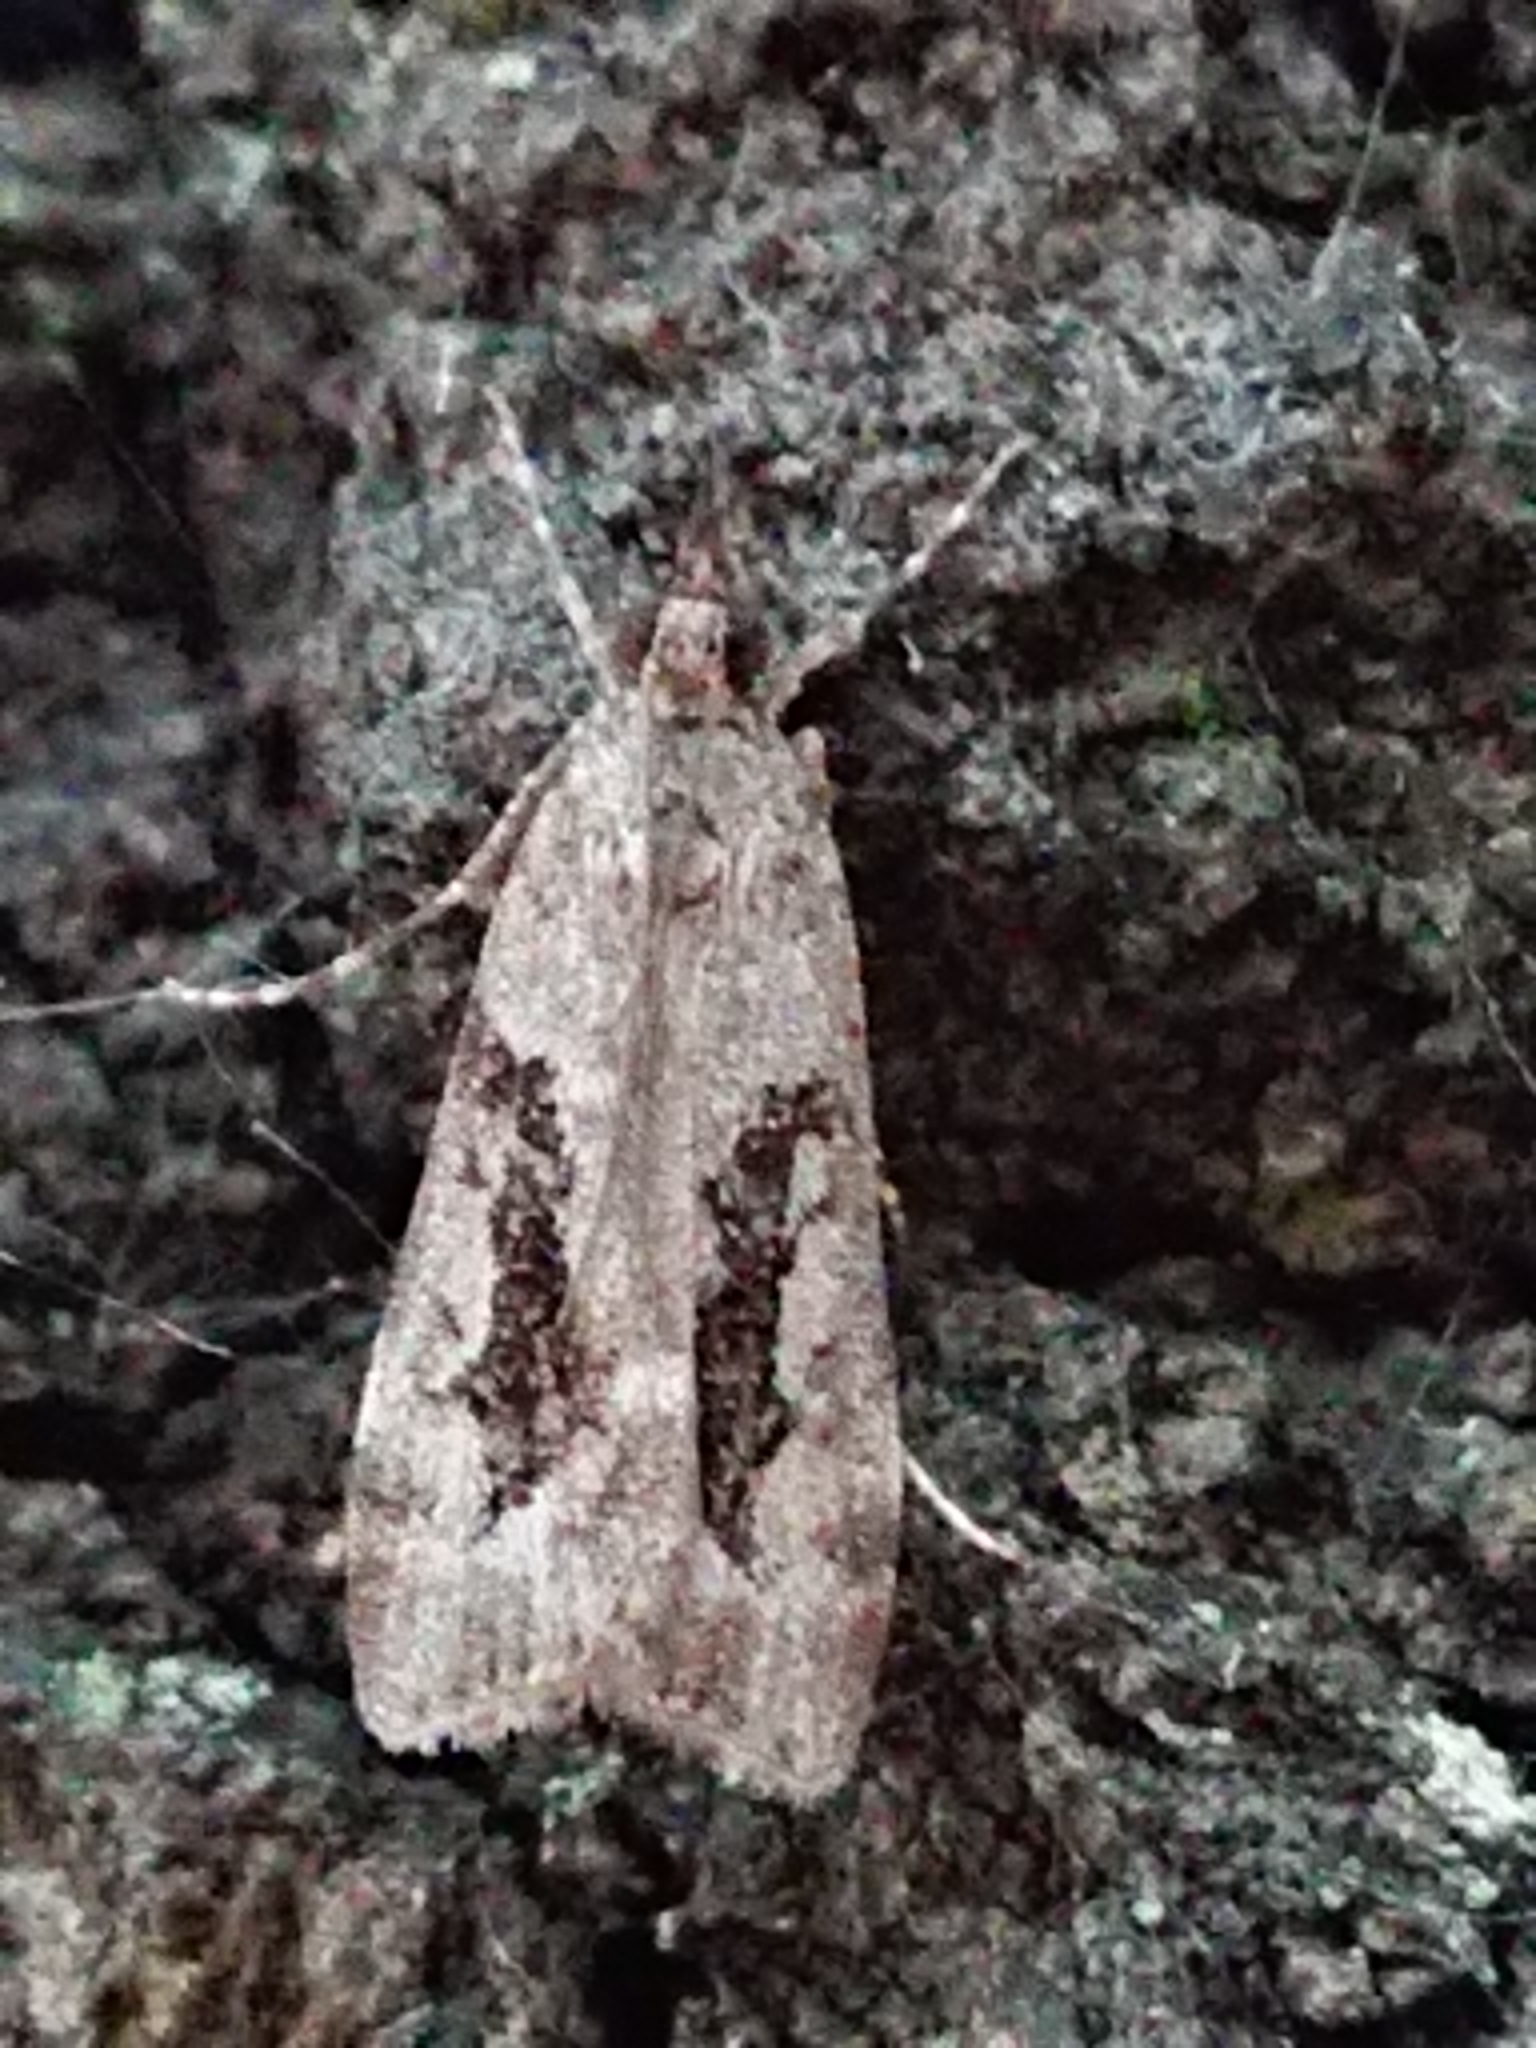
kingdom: Animalia
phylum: Arthropoda
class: Insecta
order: Lepidoptera
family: Crambidae
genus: Eudonia
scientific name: Eudonia submarginalis
